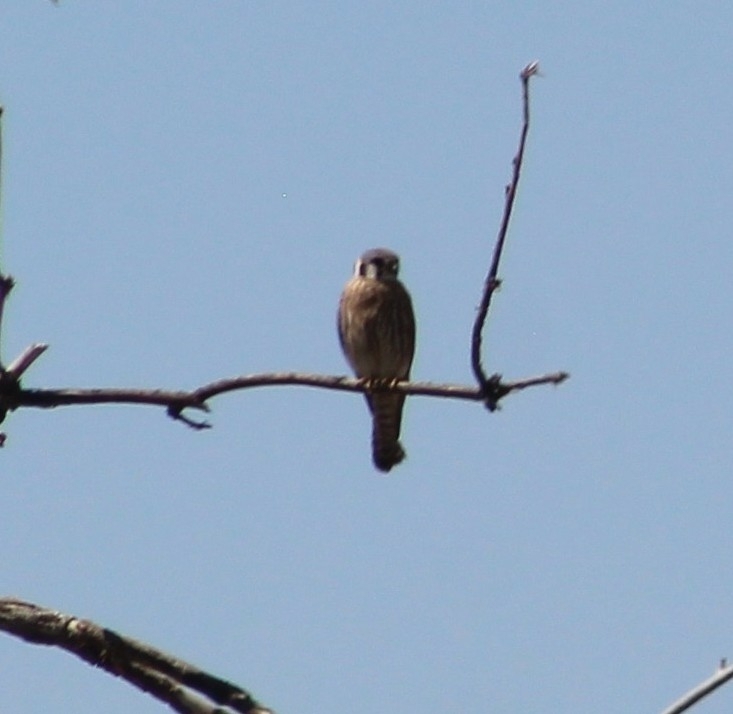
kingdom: Animalia
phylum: Chordata
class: Aves
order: Falconiformes
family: Falconidae
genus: Falco
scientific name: Falco sparverius
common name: American kestrel
